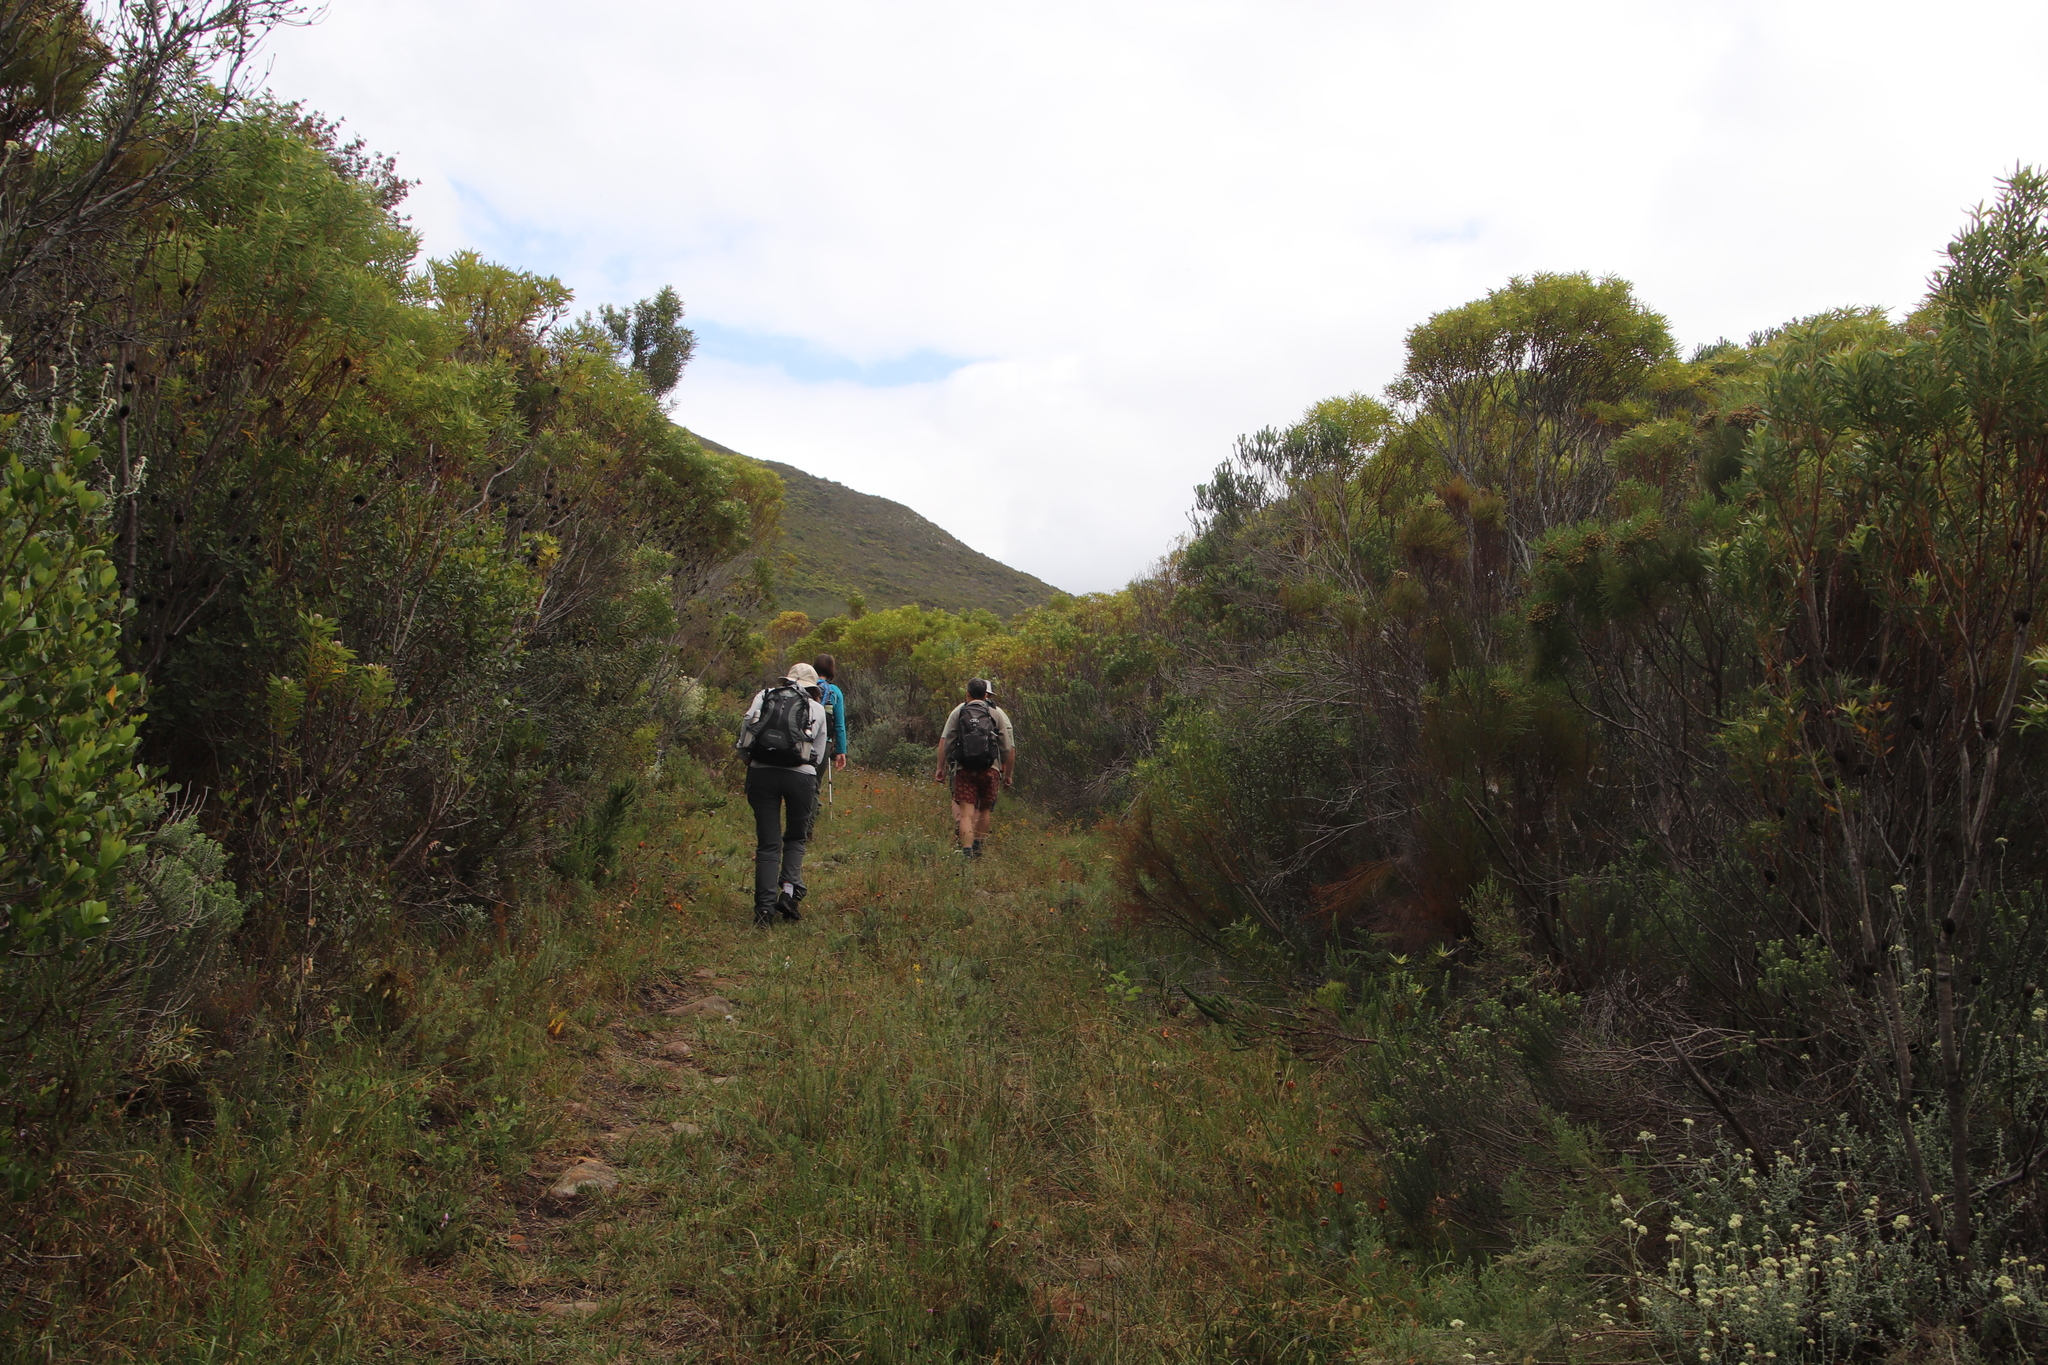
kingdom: Plantae
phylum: Tracheophyta
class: Magnoliopsida
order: Proteales
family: Proteaceae
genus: Leucadendron
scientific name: Leucadendron coniferum
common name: Dune conebush
